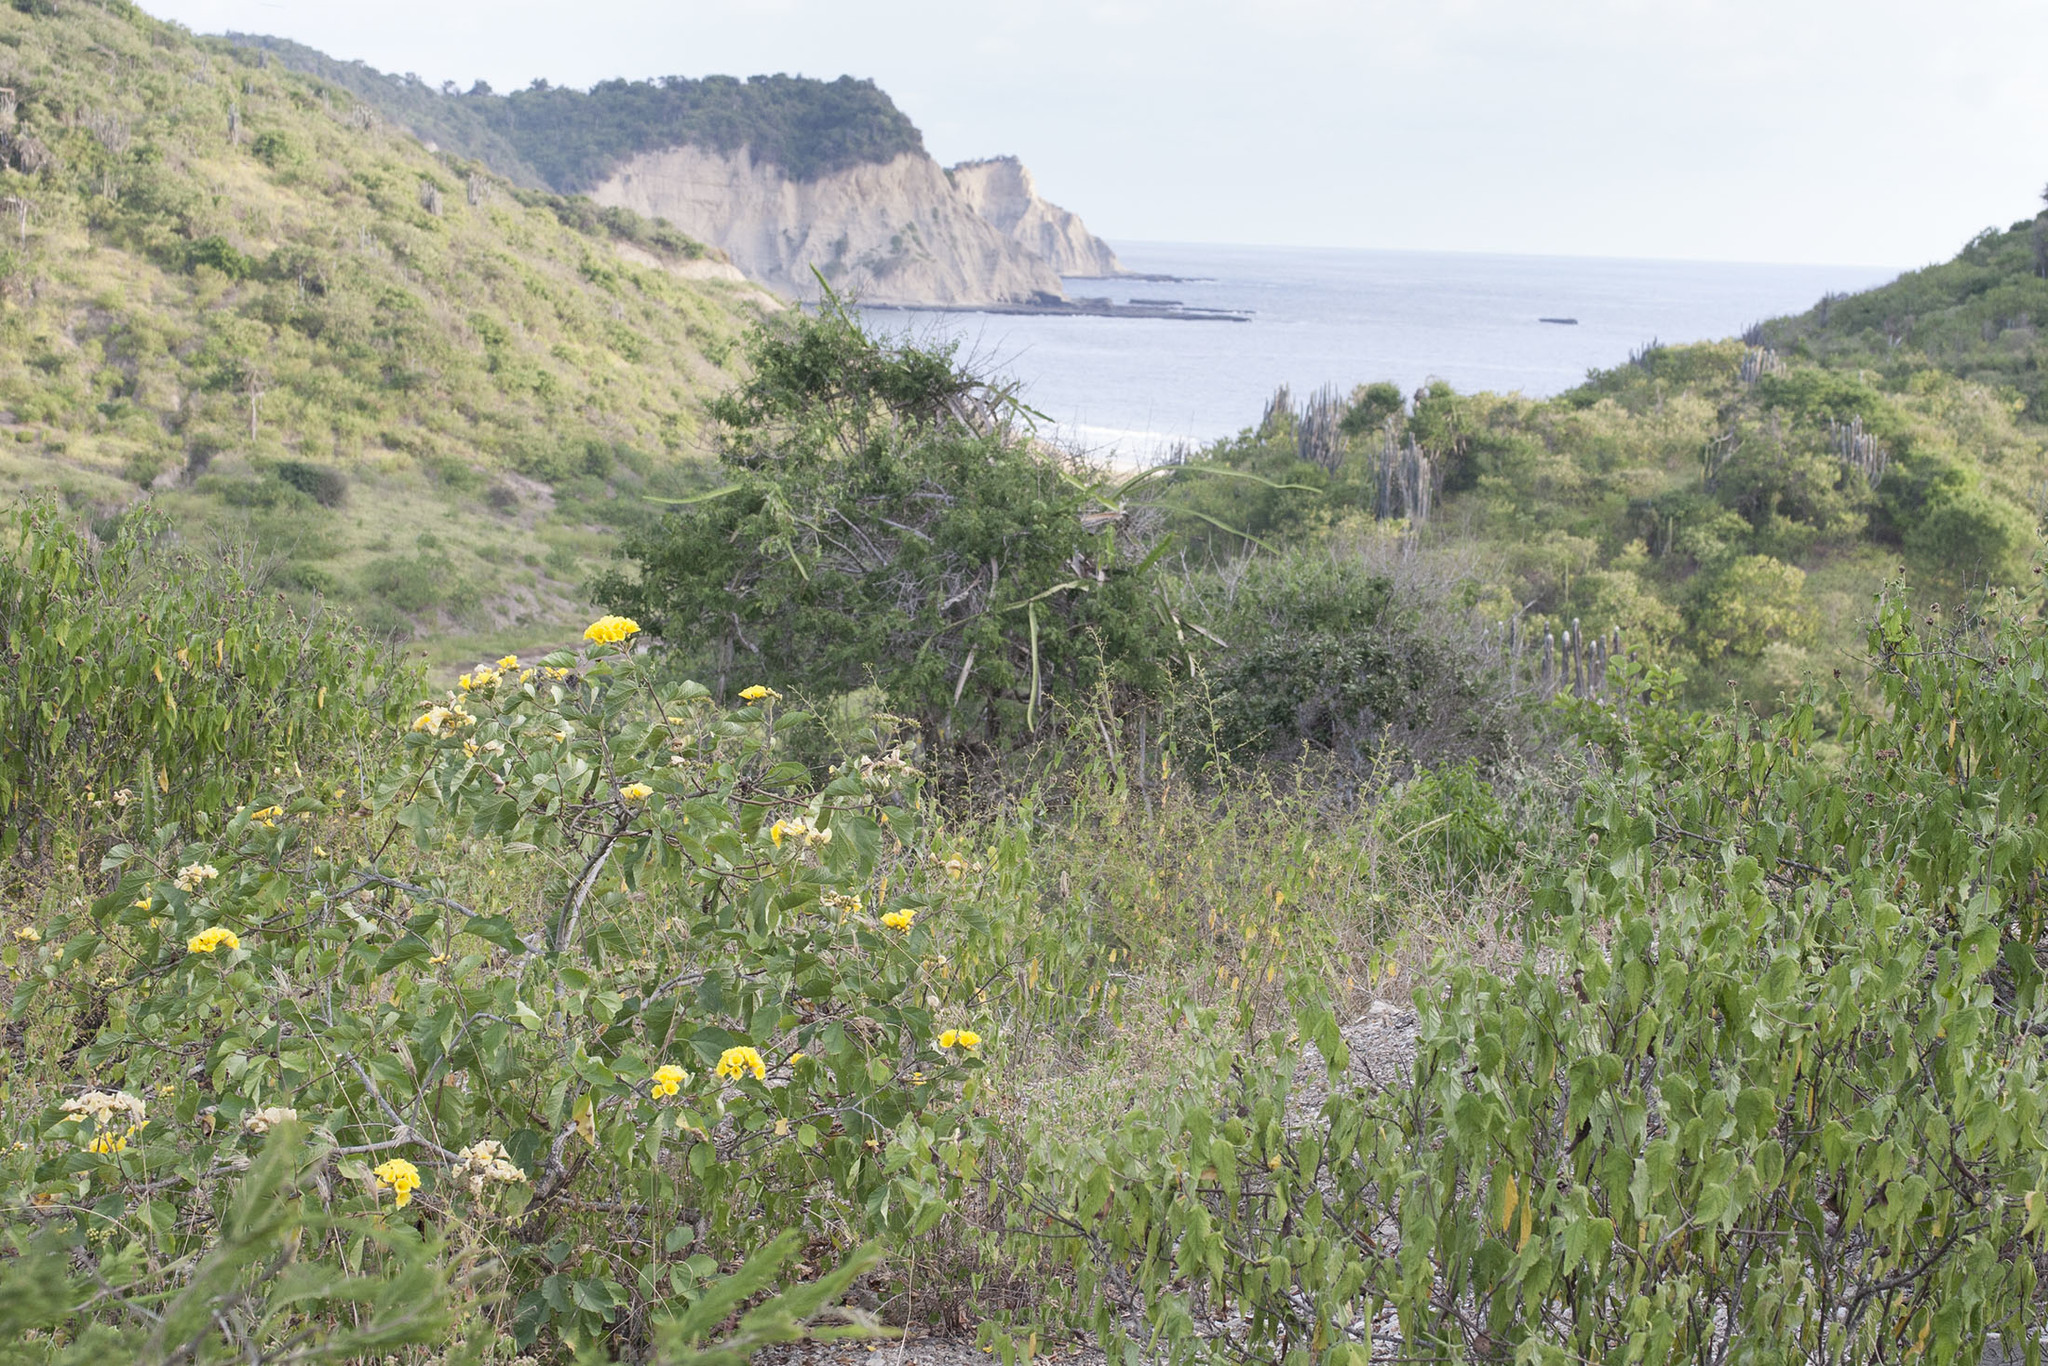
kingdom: Plantae
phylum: Tracheophyta
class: Magnoliopsida
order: Boraginales
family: Cordiaceae
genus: Cordia
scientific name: Cordia lutea
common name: Yellow geiger
